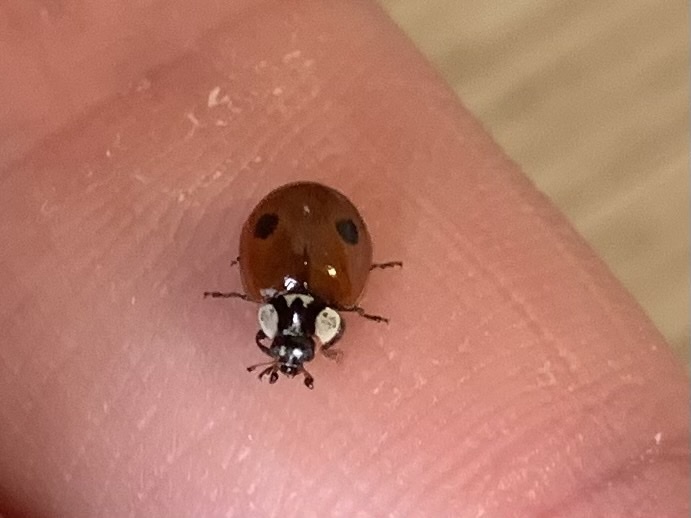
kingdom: Animalia
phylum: Arthropoda
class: Insecta
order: Coleoptera
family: Coccinellidae
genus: Adalia
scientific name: Adalia bipunctata
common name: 2-spot ladybird
